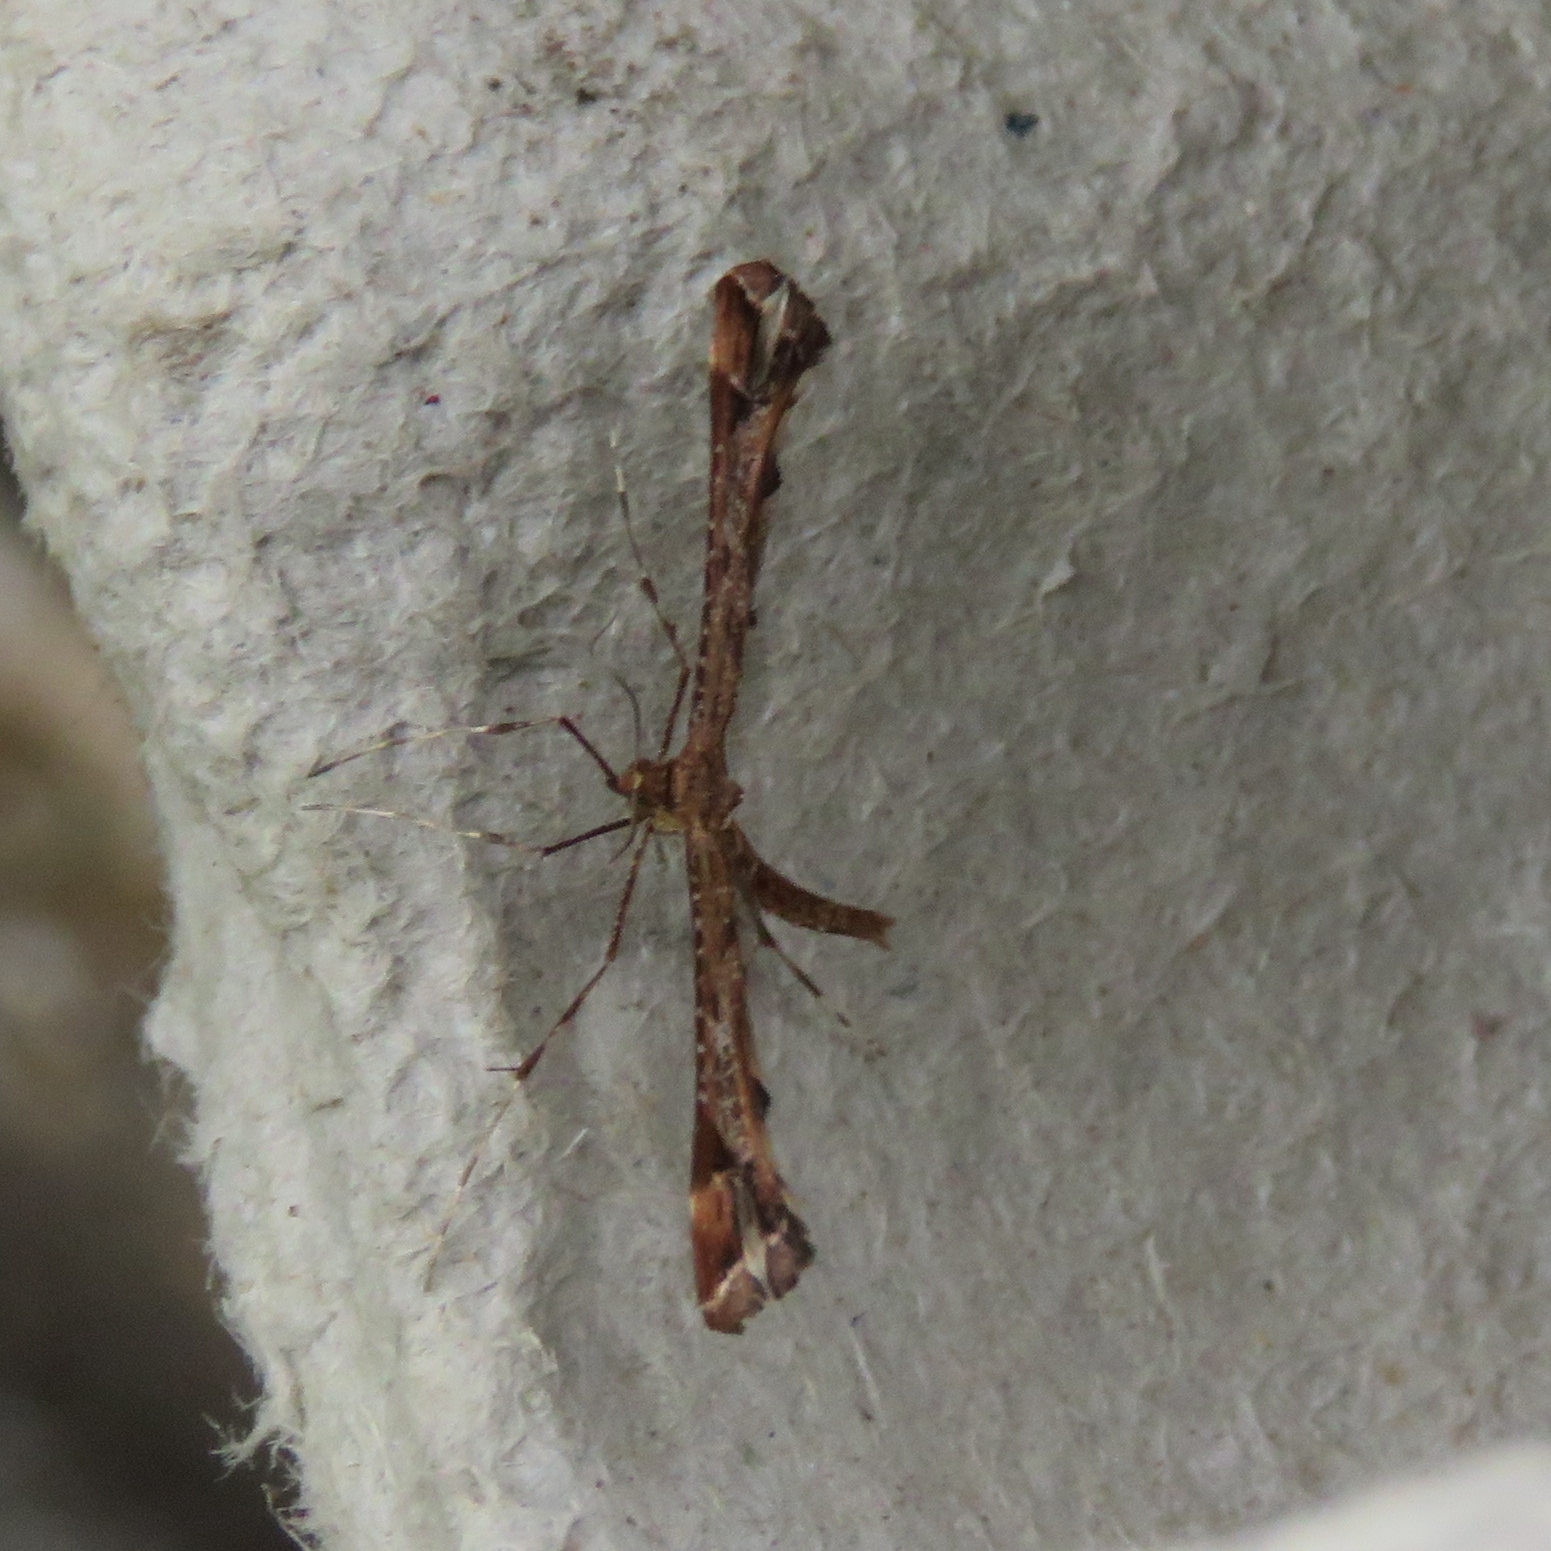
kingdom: Animalia
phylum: Arthropoda
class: Insecta
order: Lepidoptera
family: Pterophoridae
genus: Amblyptilia
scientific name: Amblyptilia acanthadactyla
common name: Beautiful plume
